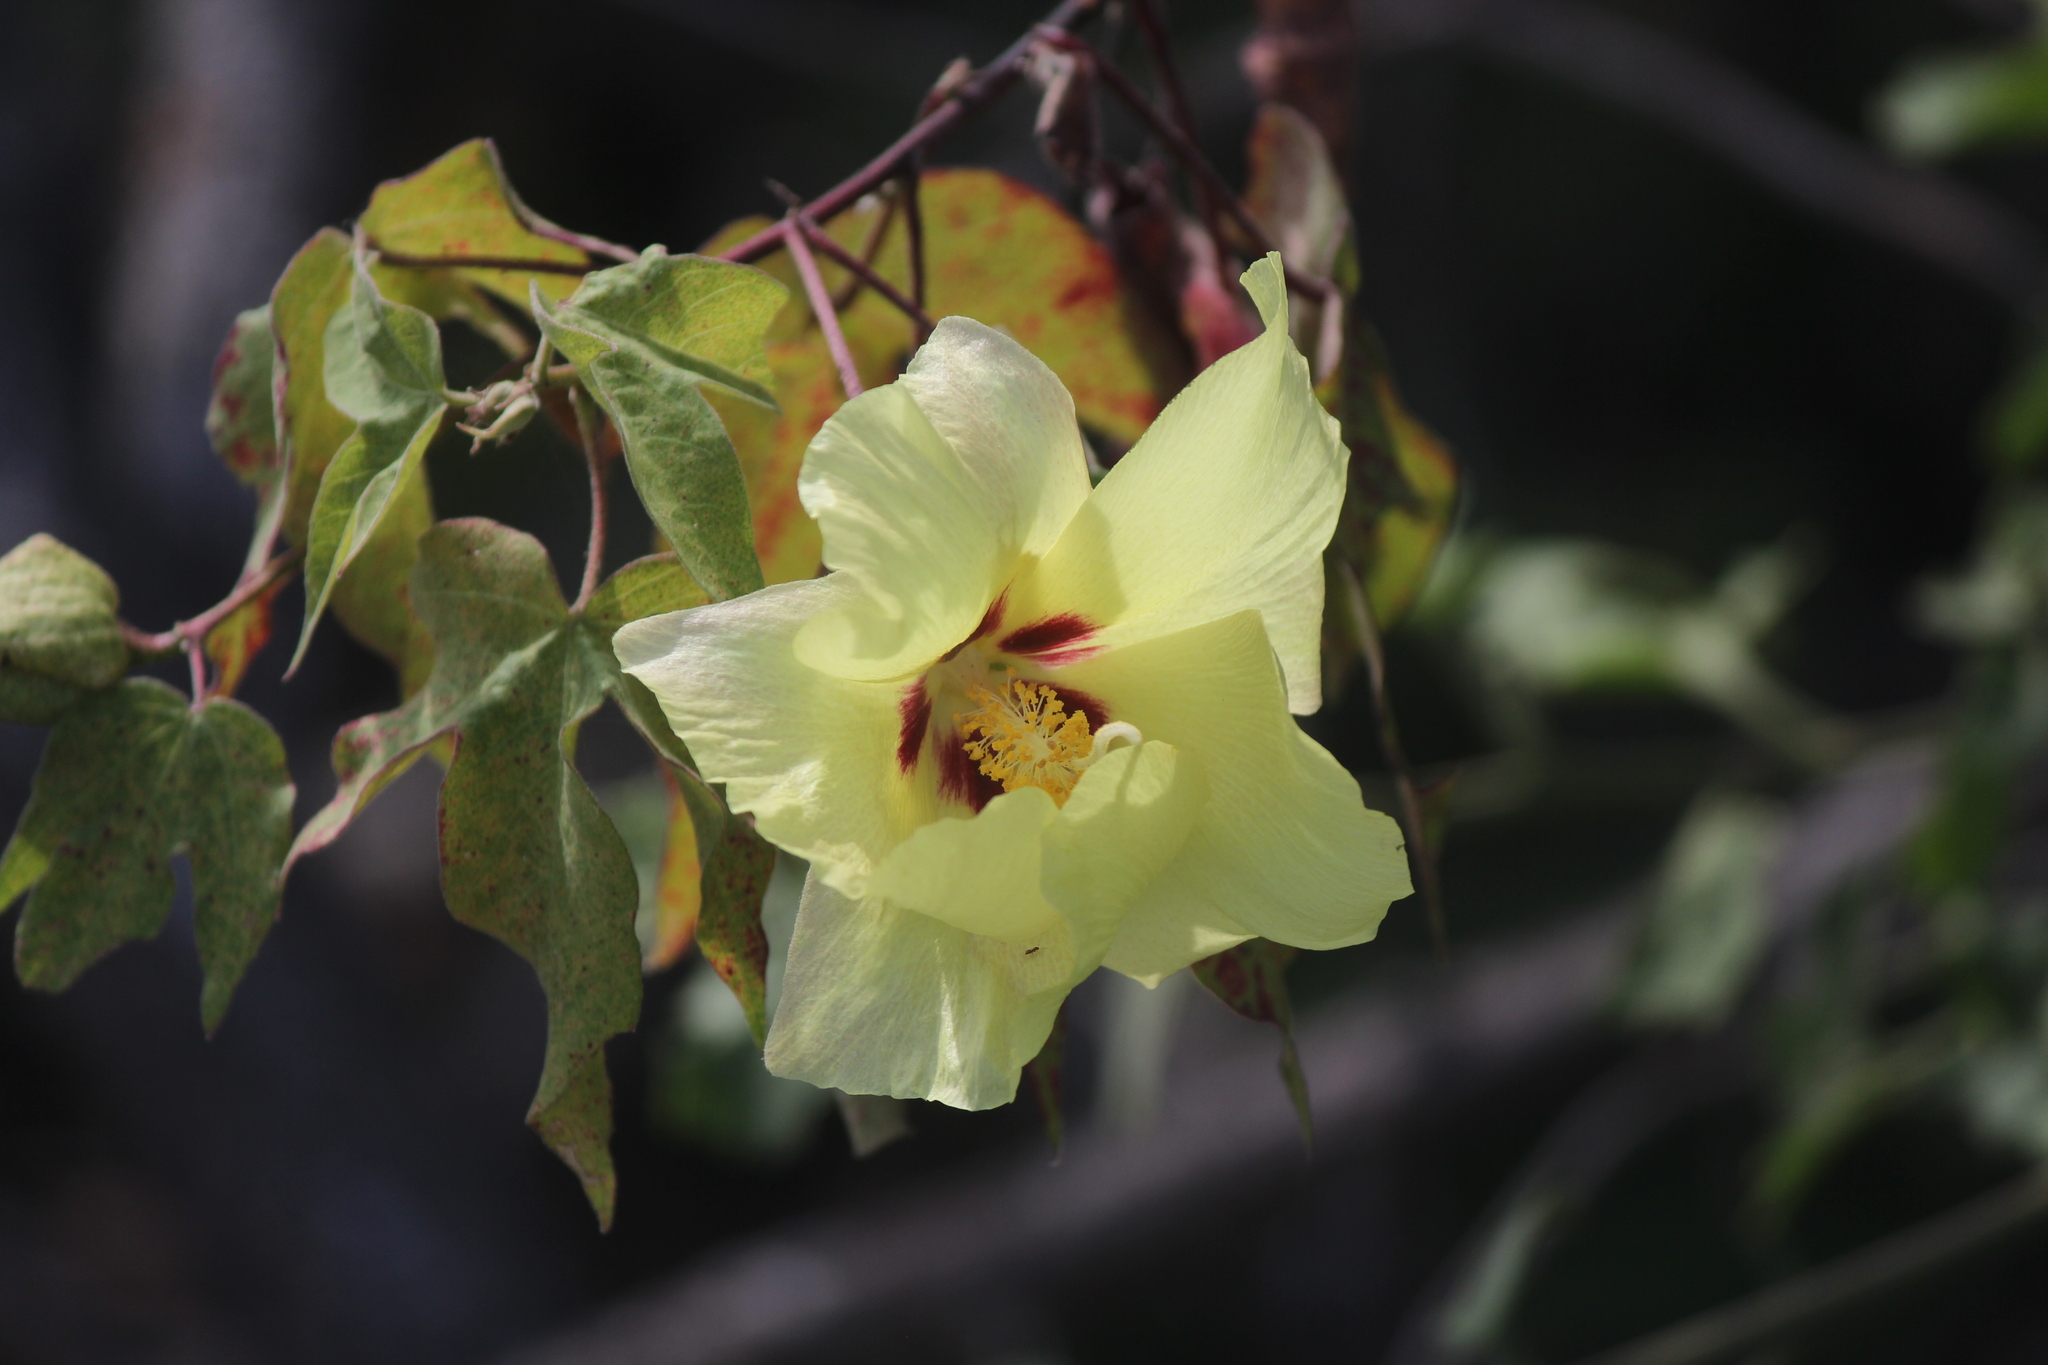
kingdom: Plantae
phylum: Tracheophyta
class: Magnoliopsida
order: Malvales
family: Malvaceae
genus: Gossypium
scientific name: Gossypium darwinii
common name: Darwin's cotton
